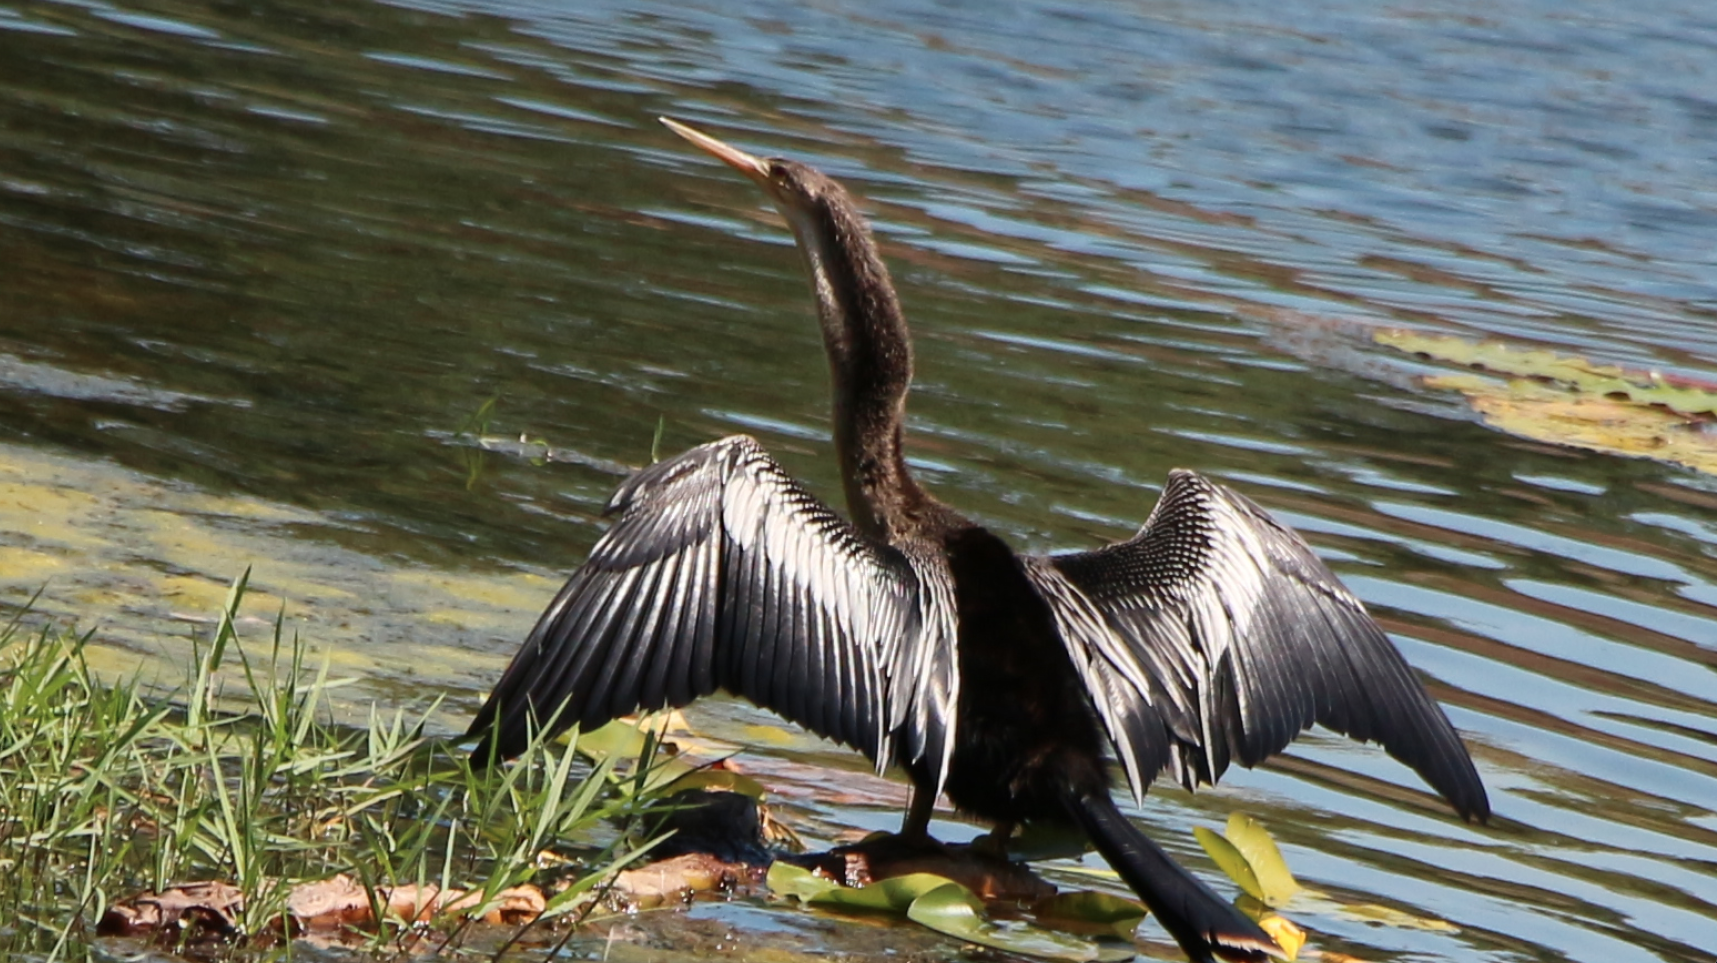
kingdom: Animalia
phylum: Chordata
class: Aves
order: Suliformes
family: Anhingidae
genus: Anhinga
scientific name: Anhinga anhinga
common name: Anhinga
